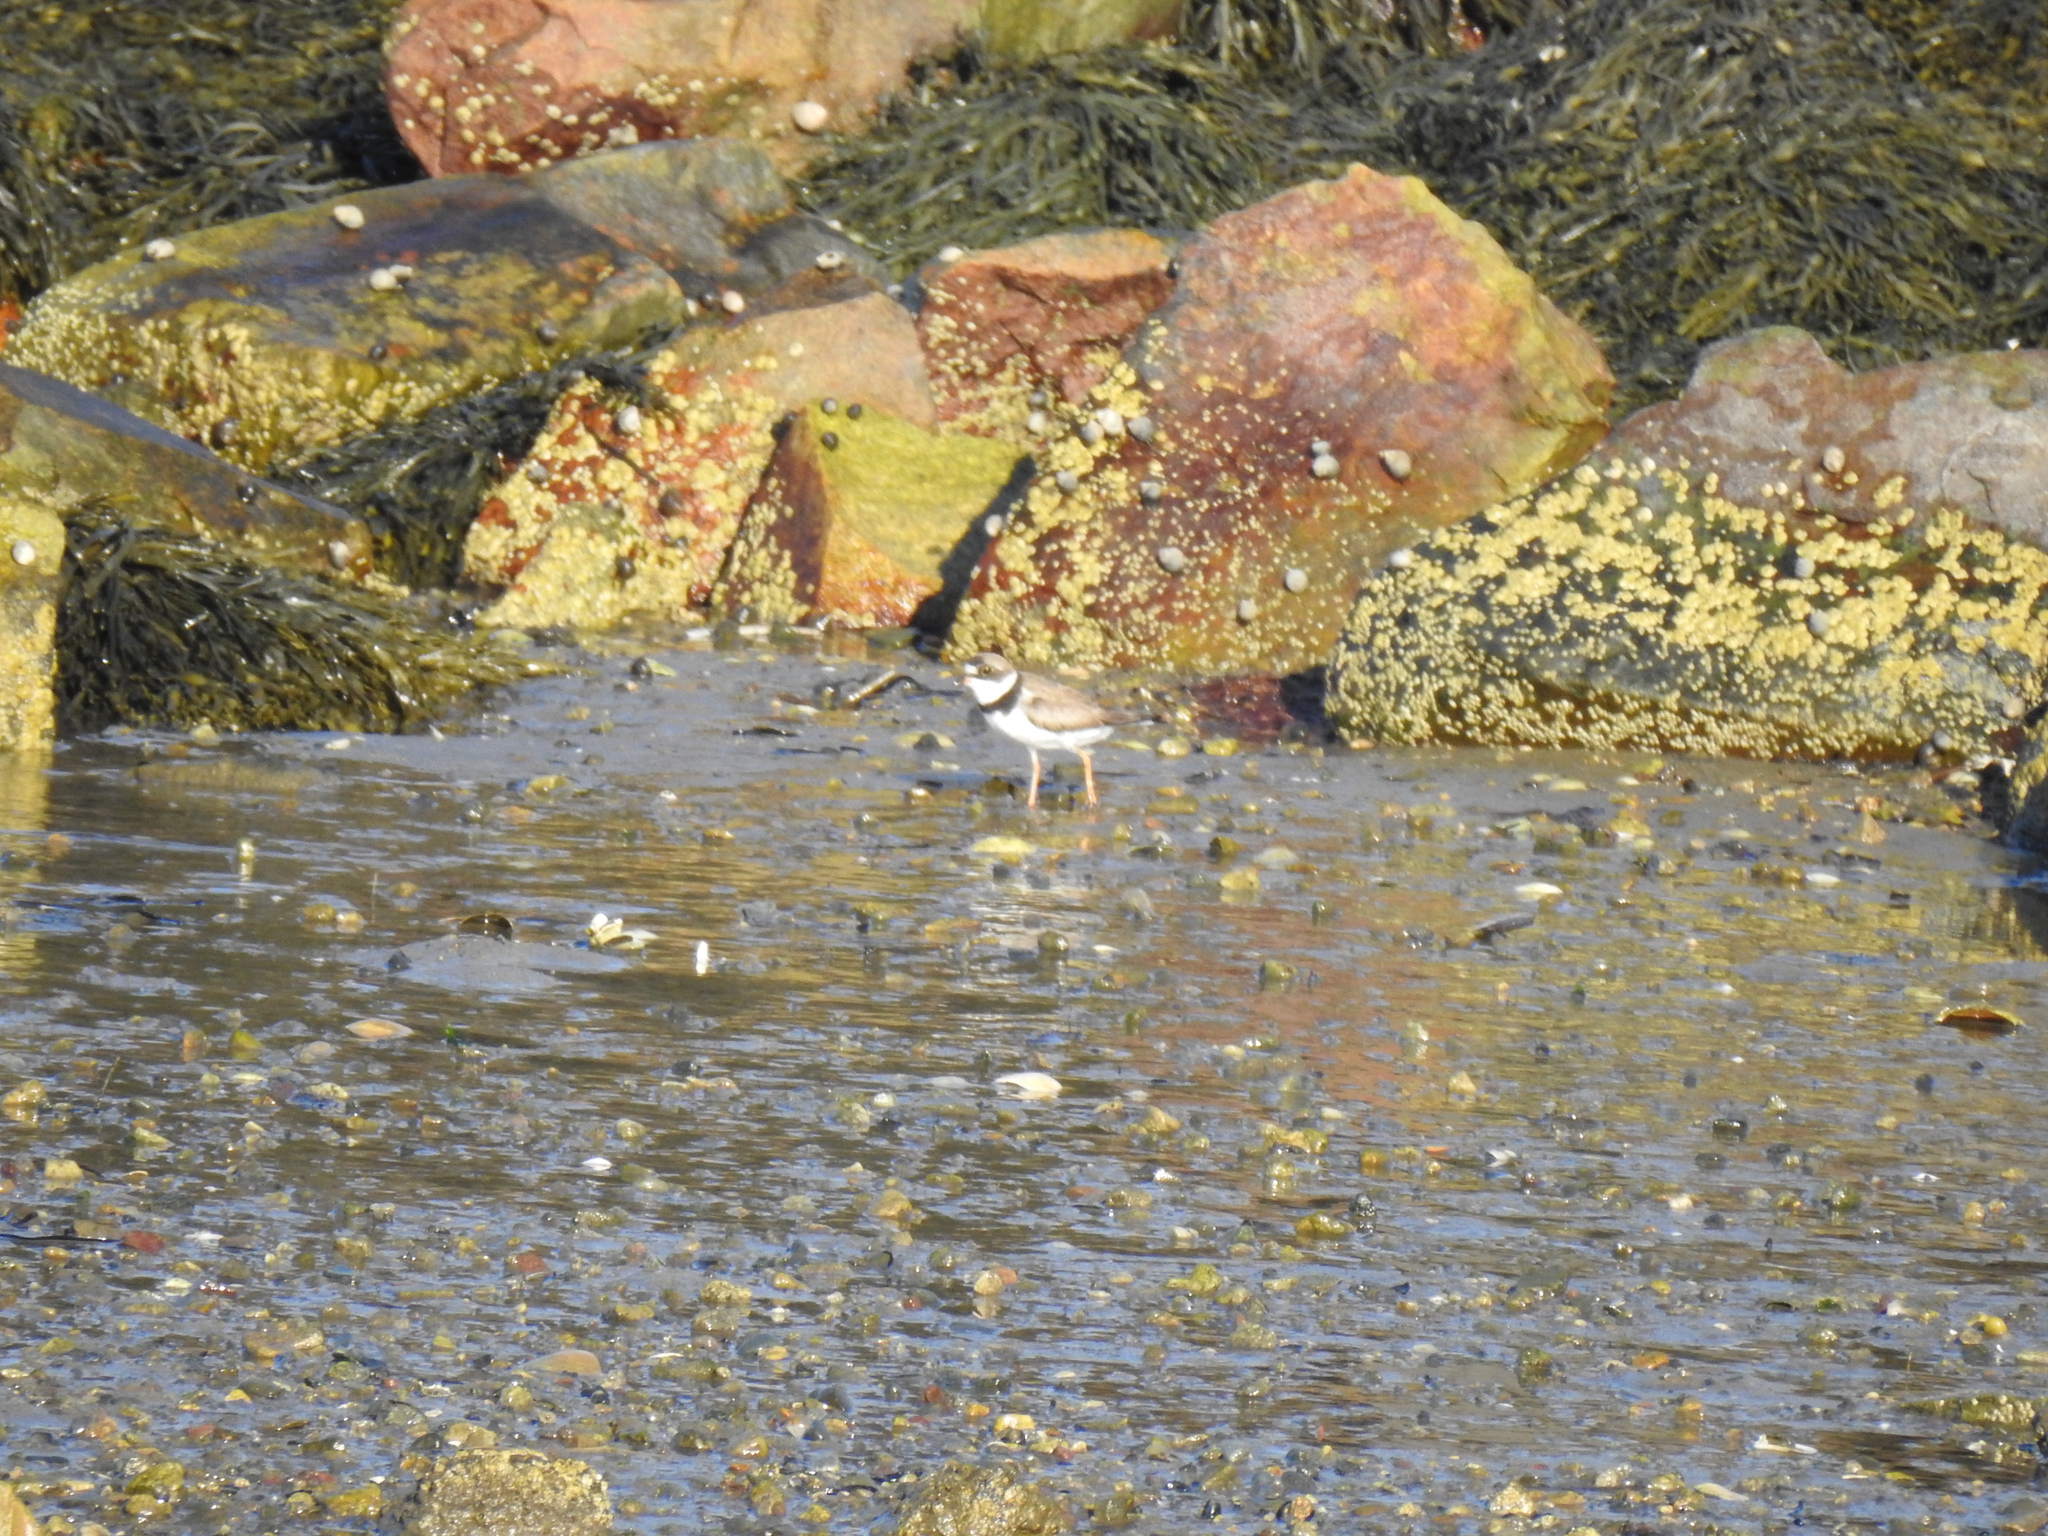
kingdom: Animalia
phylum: Chordata
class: Aves
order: Charadriiformes
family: Charadriidae
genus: Charadrius
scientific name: Charadrius semipalmatus
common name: Semipalmated plover
